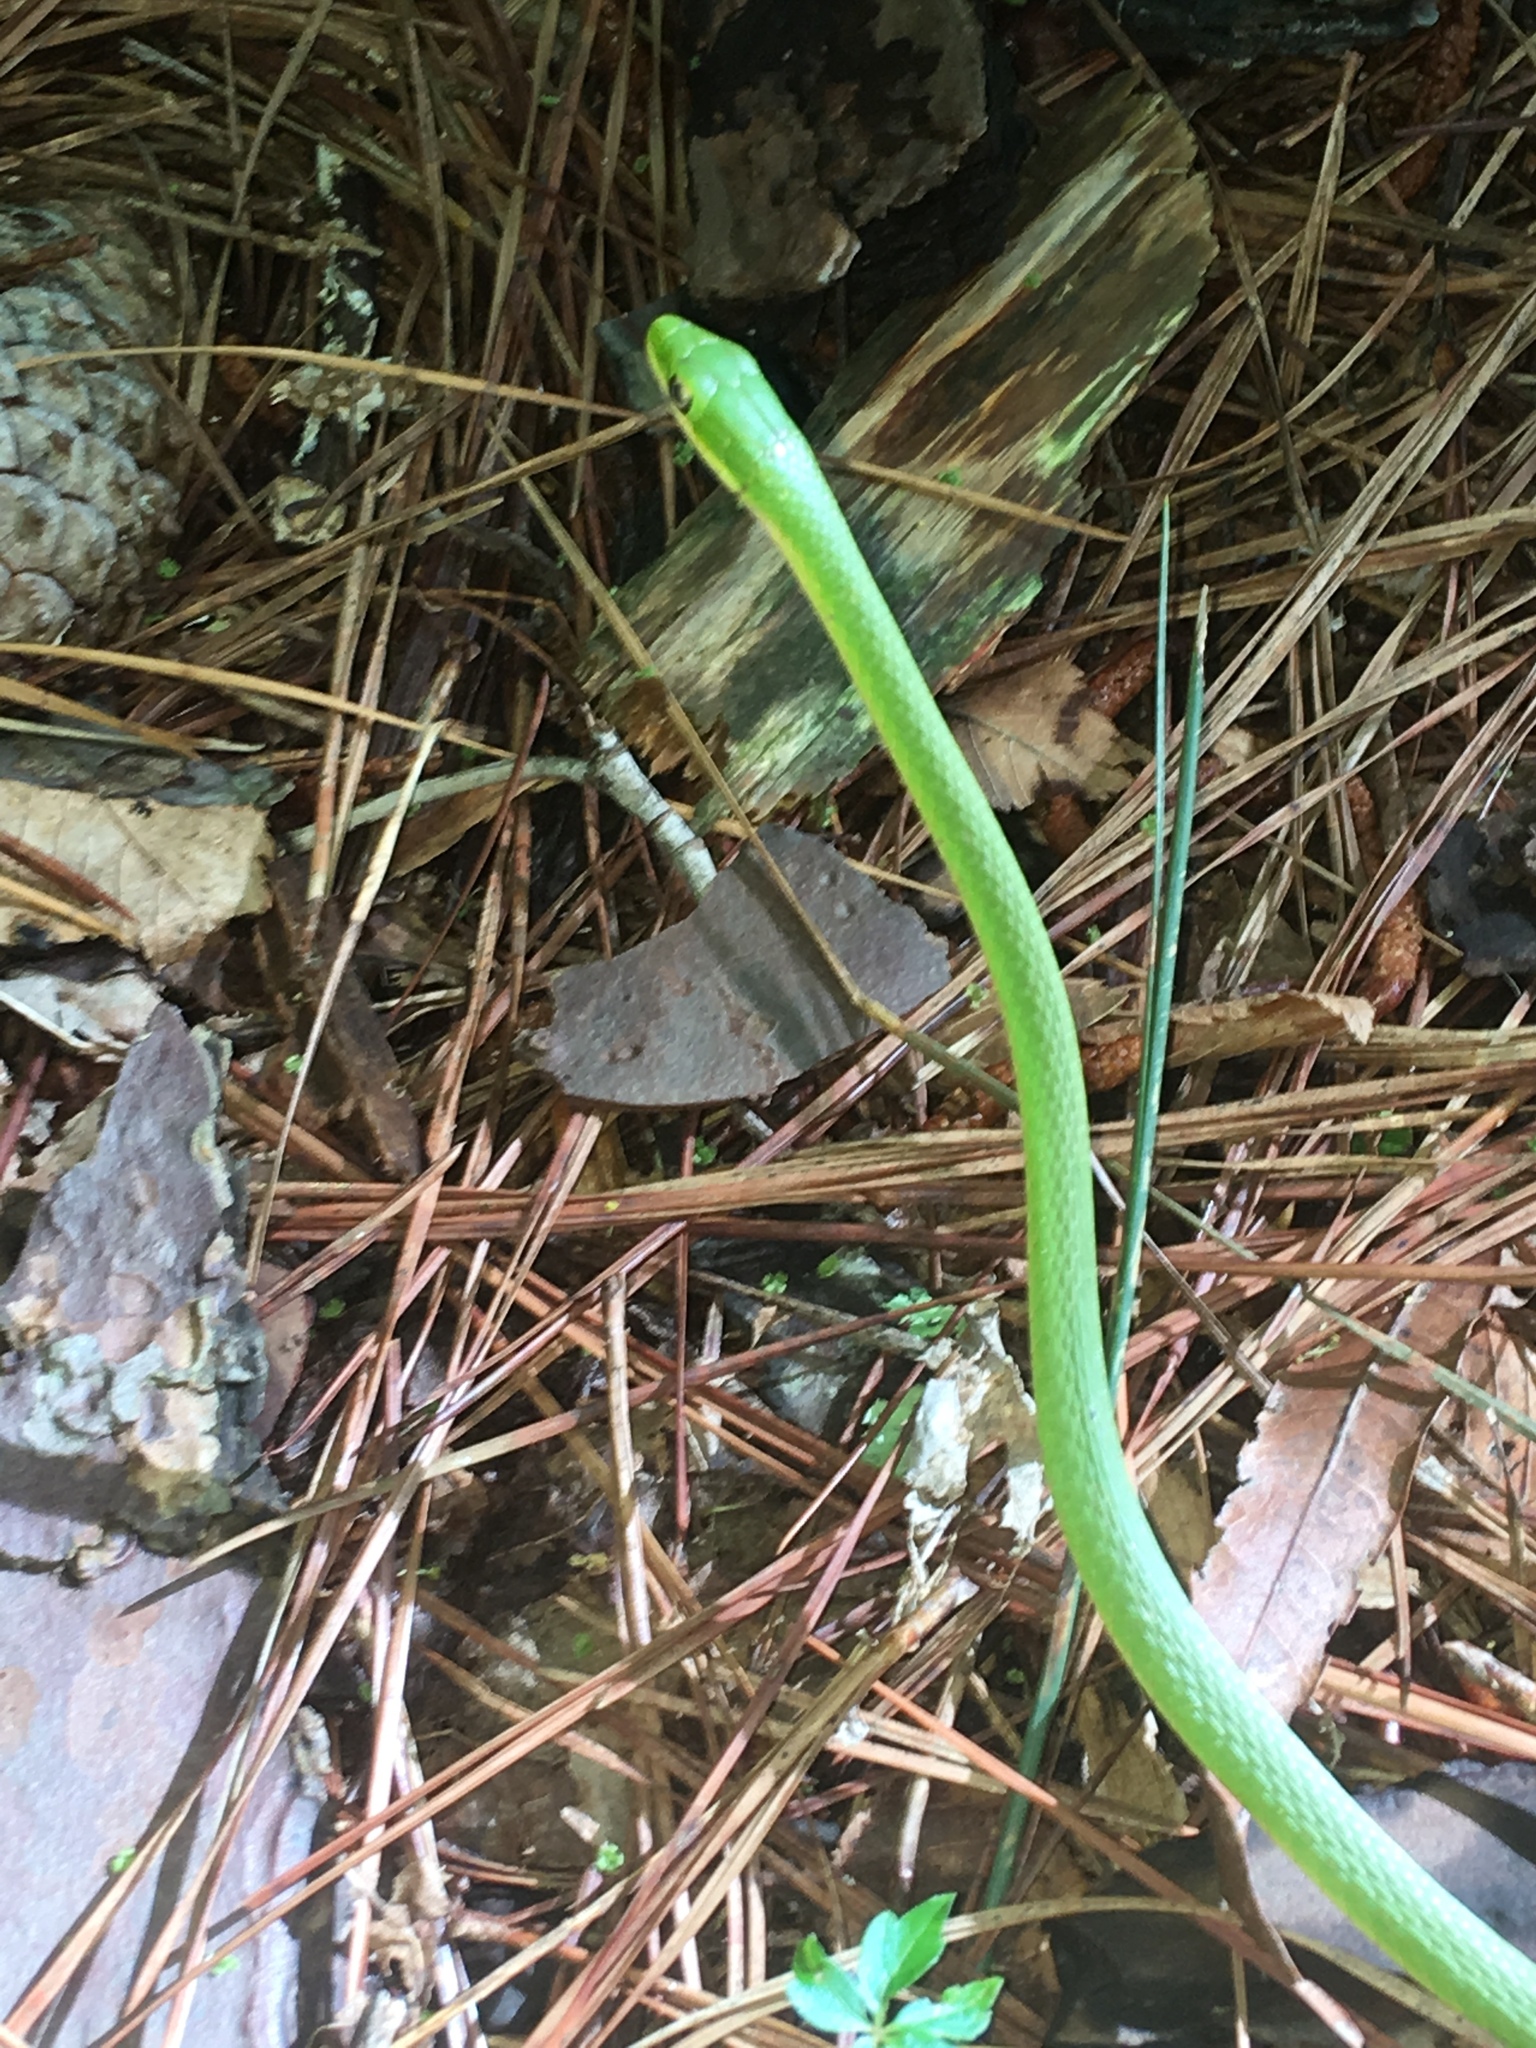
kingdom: Animalia
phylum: Chordata
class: Squamata
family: Colubridae
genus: Opheodrys
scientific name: Opheodrys aestivus
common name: Rough greensnake
